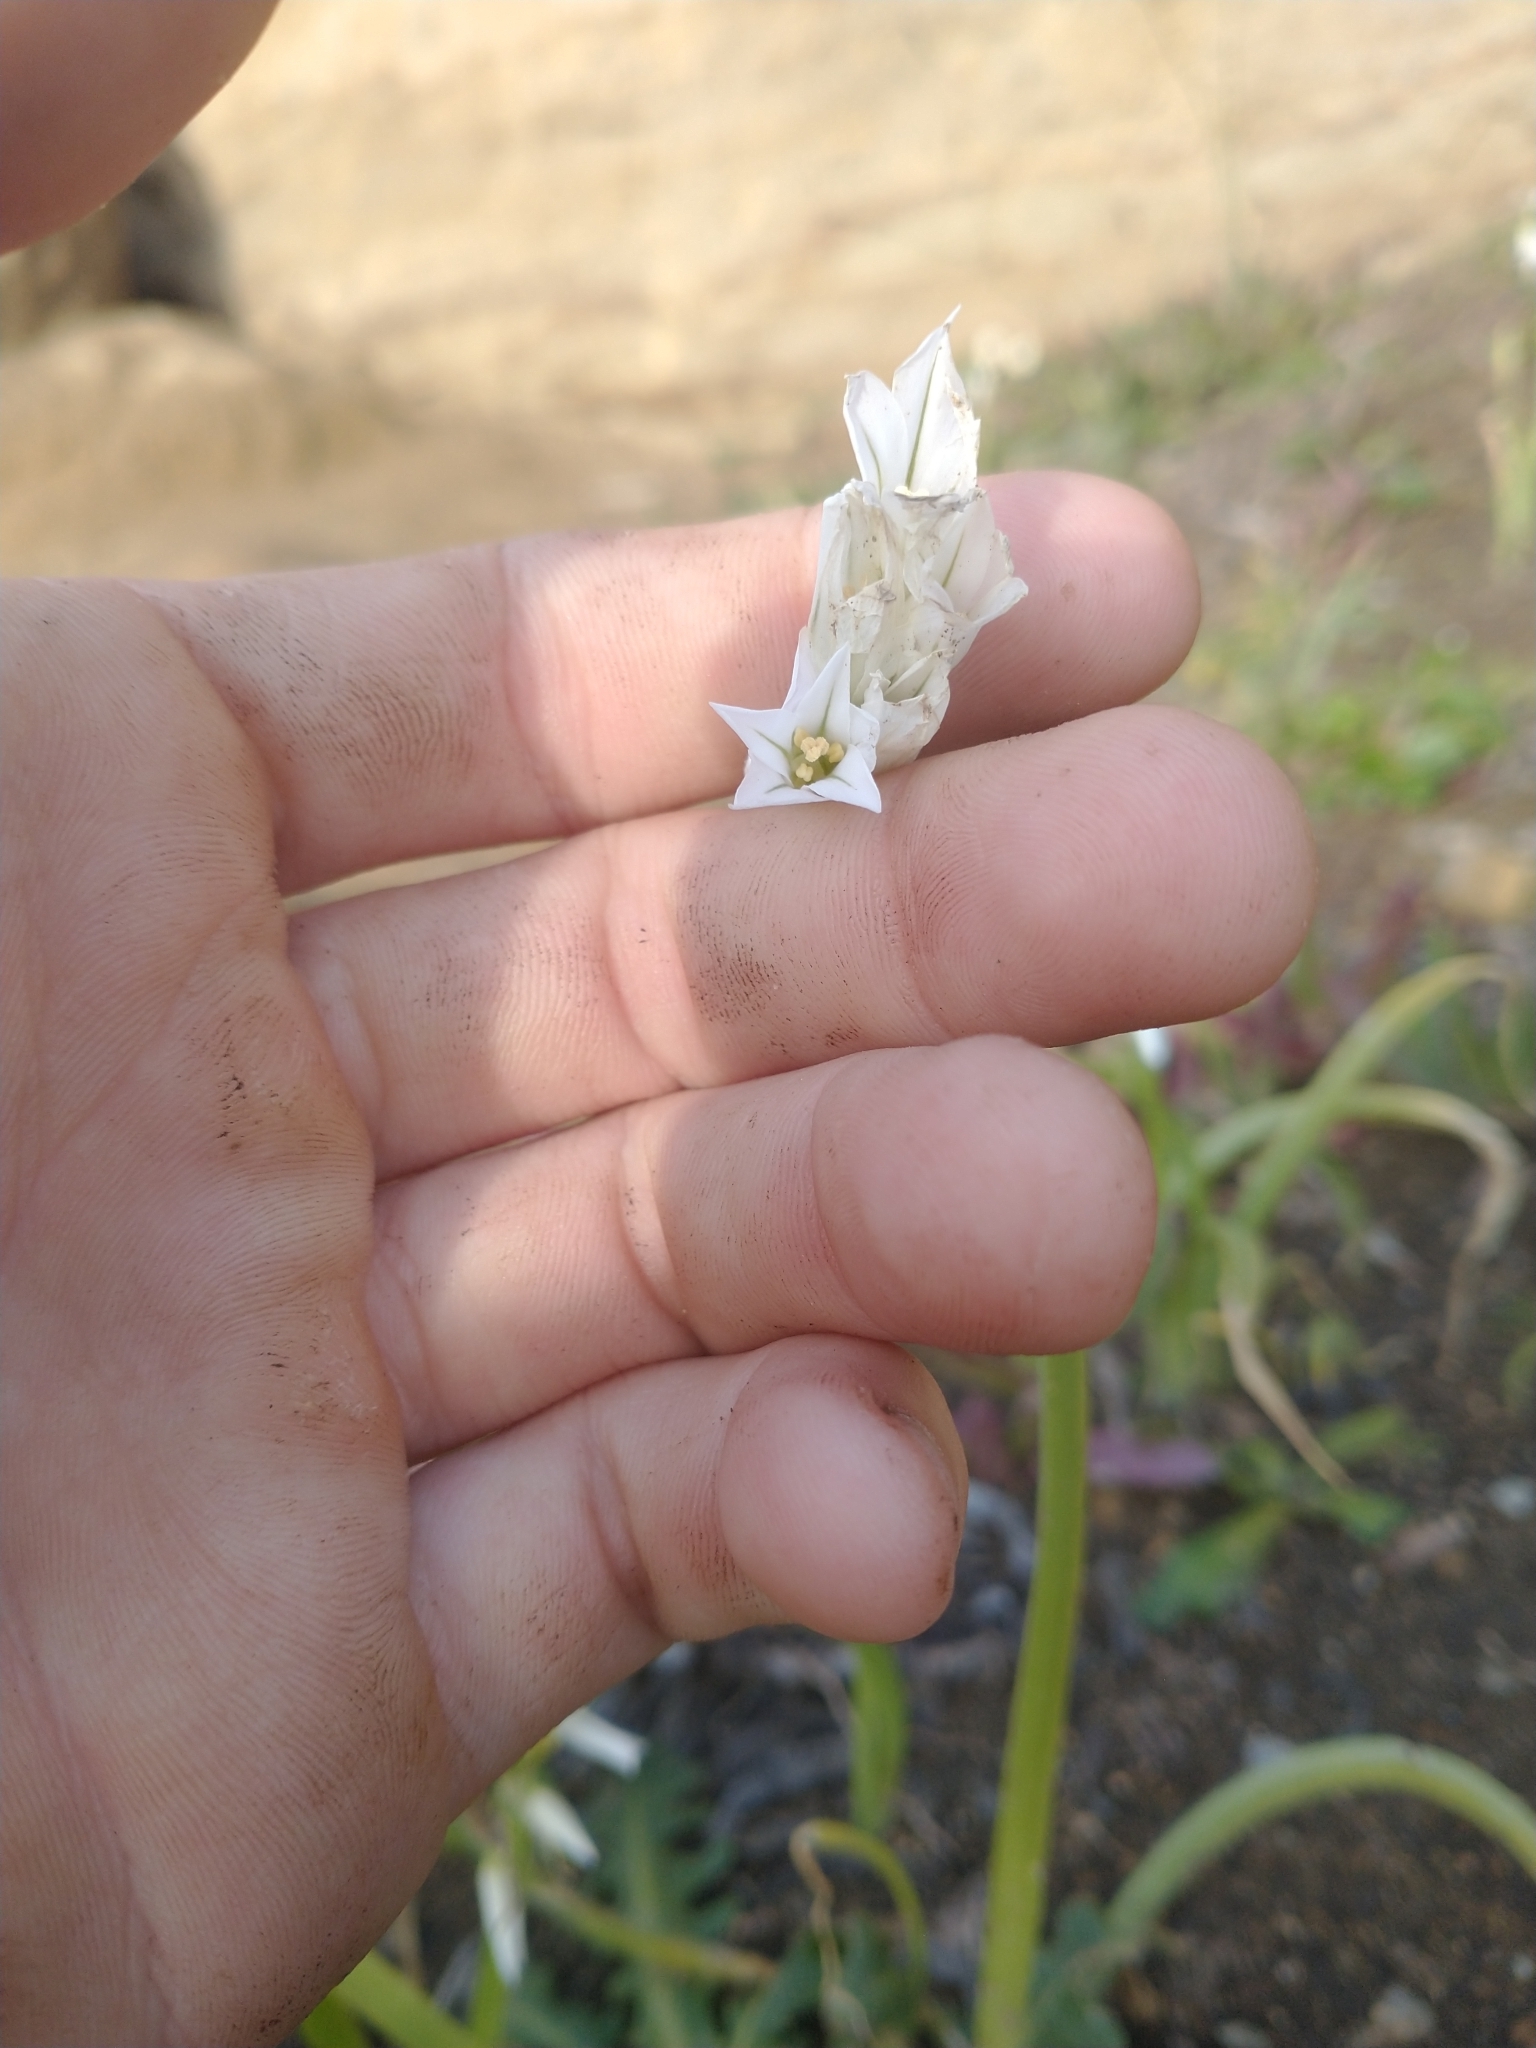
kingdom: Plantae
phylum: Tracheophyta
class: Liliopsida
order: Asparagales
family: Amaryllidaceae
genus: Allium
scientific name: Allium triquetrum
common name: Three-cornered garlic
